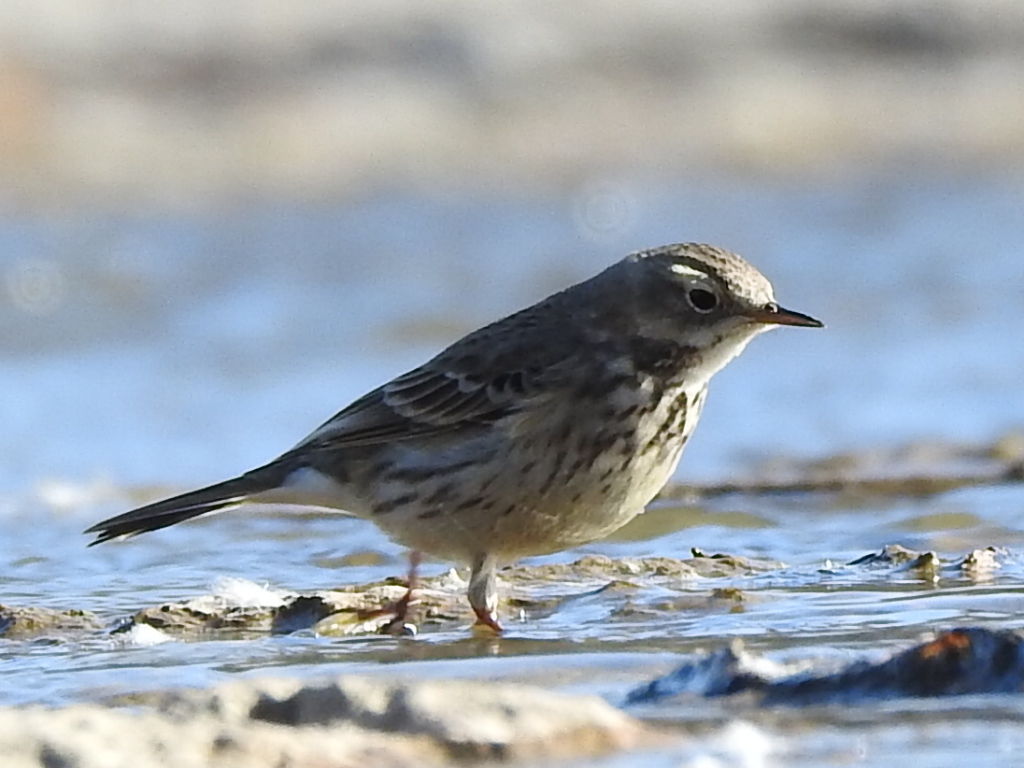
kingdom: Animalia
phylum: Chordata
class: Aves
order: Passeriformes
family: Motacillidae
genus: Anthus
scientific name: Anthus rubescens
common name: Buff-bellied pipit
